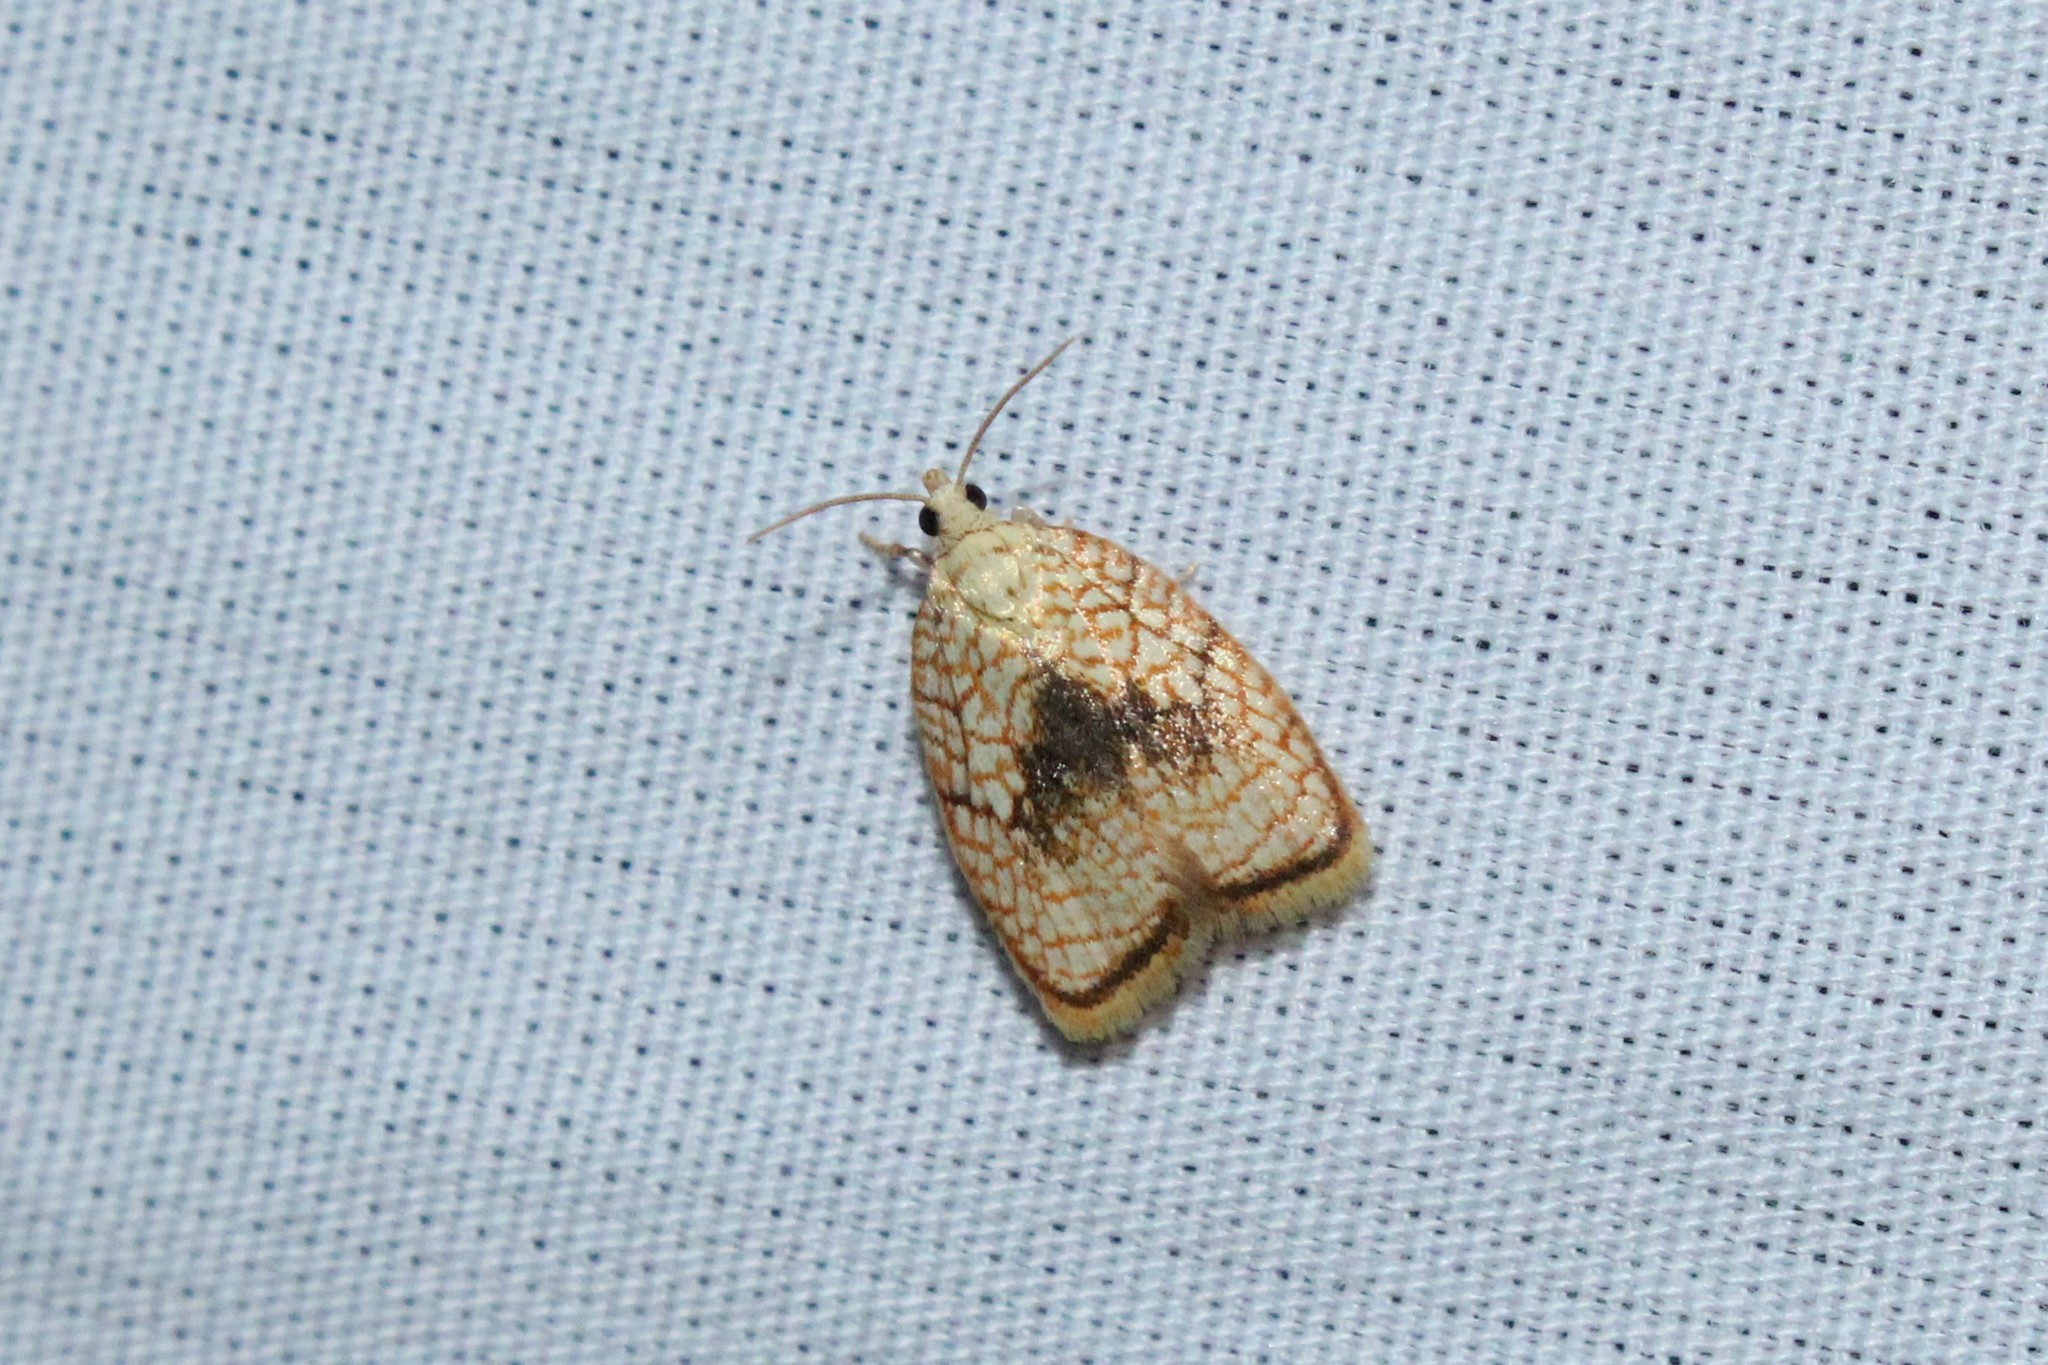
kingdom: Animalia
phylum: Arthropoda
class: Insecta
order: Lepidoptera
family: Tortricidae
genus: Acleris
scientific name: Acleris forsskaleana
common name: Maple button
